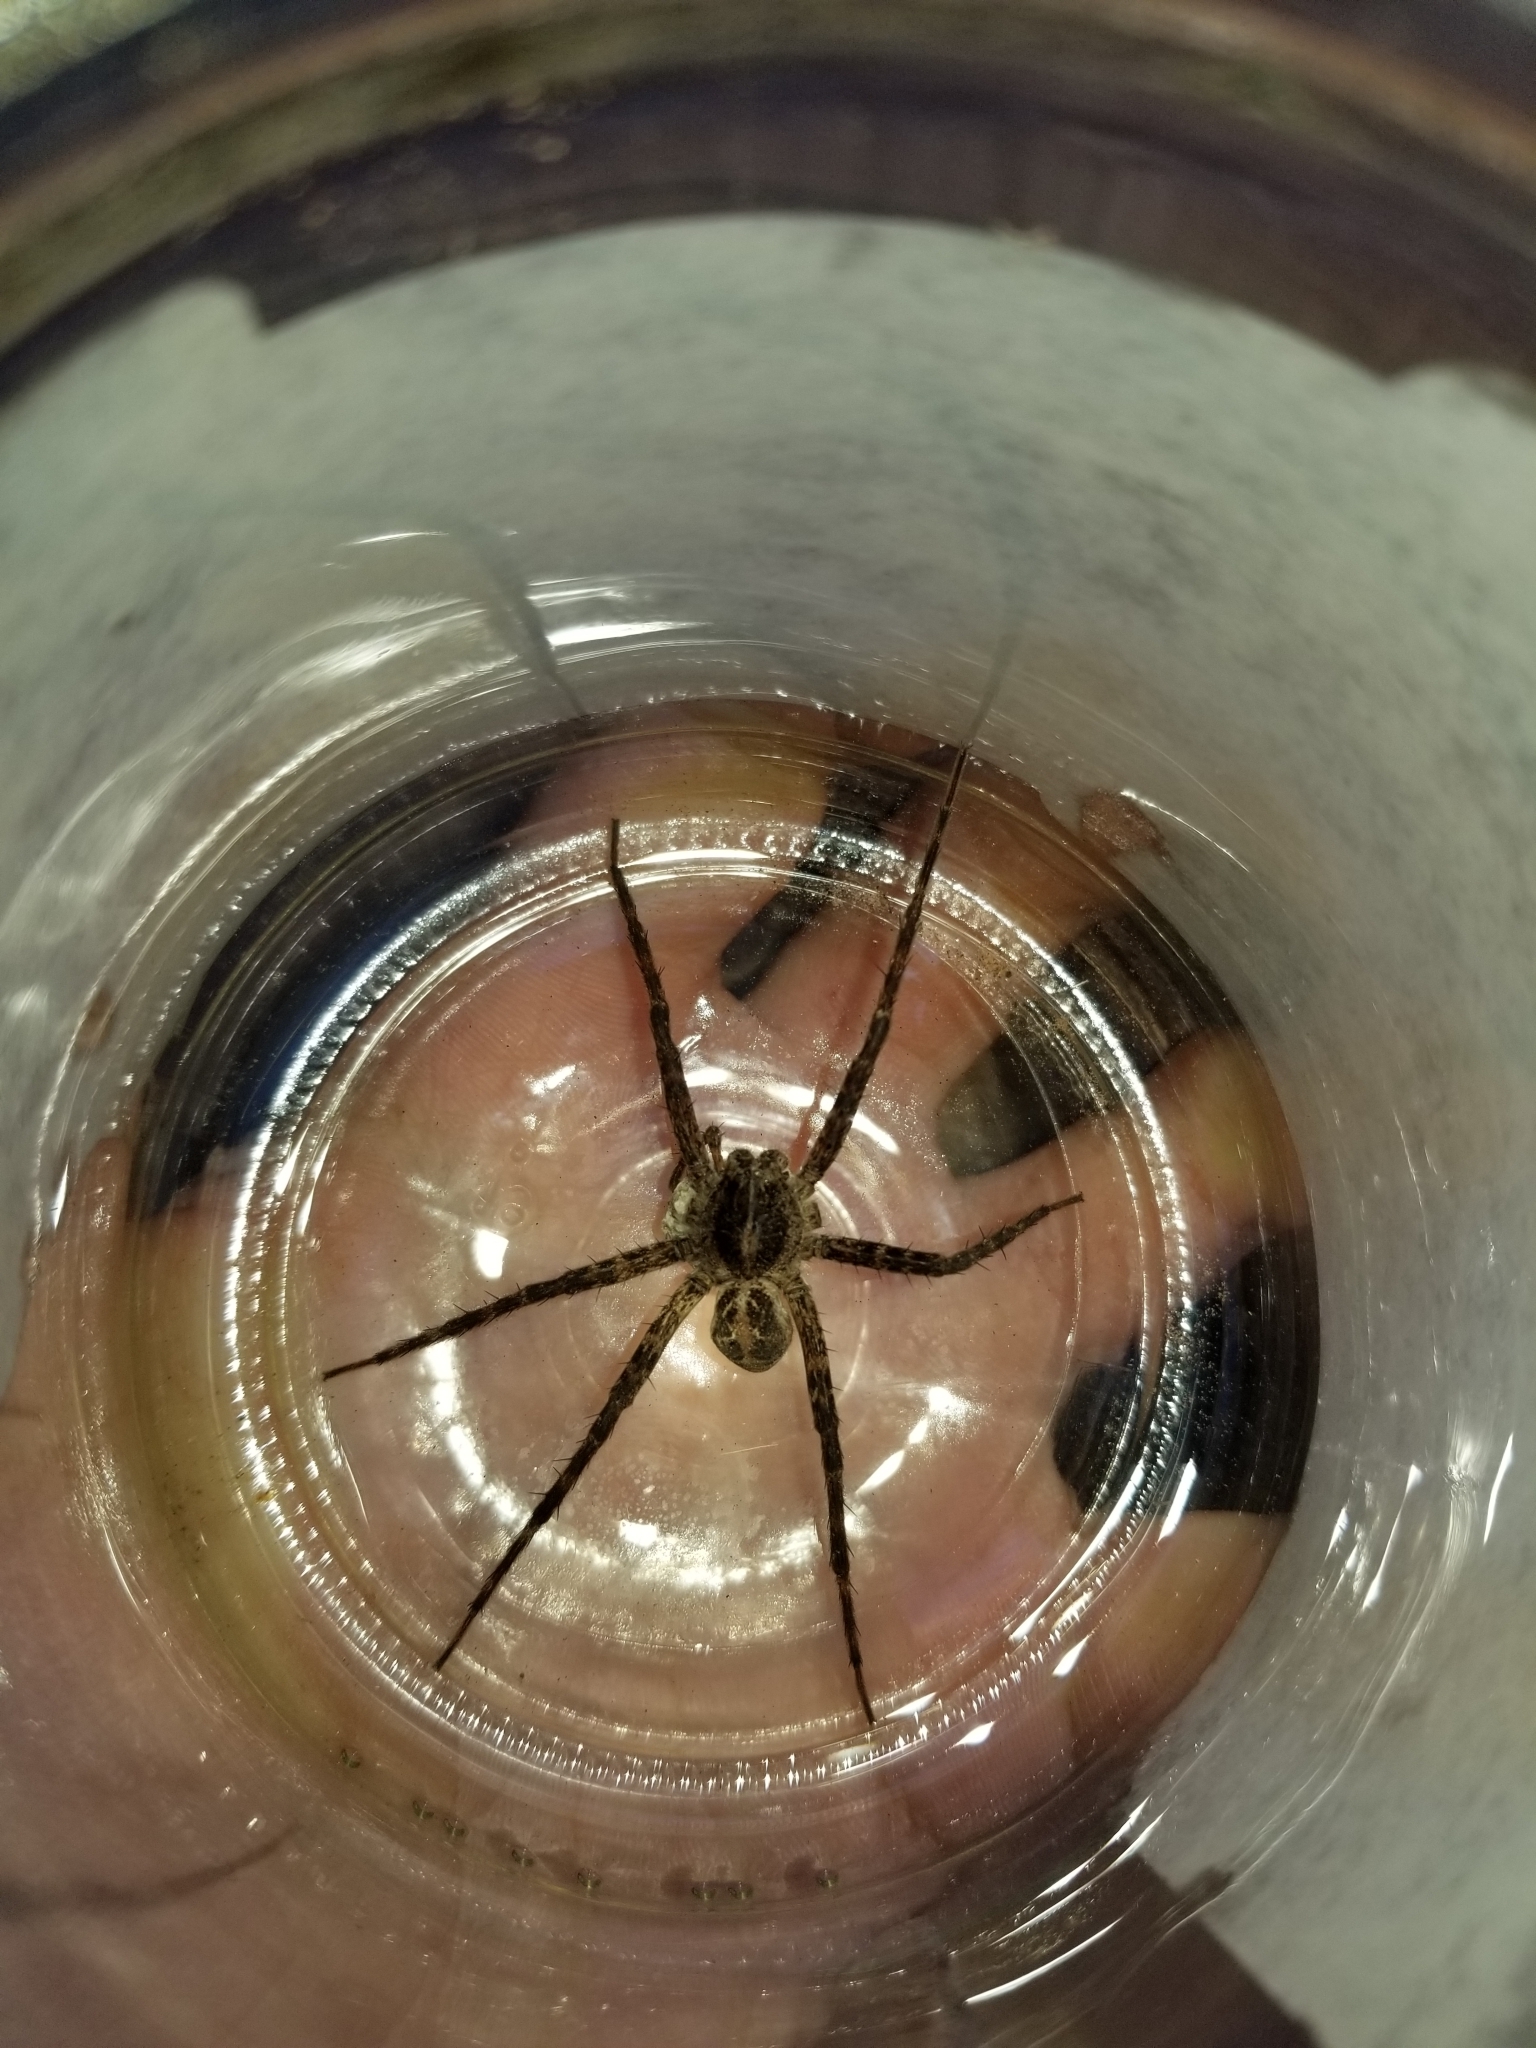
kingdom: Animalia
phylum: Arthropoda
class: Arachnida
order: Araneae
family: Pisauridae
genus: Dolomedes
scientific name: Dolomedes scriptus
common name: Striped fishing spider
